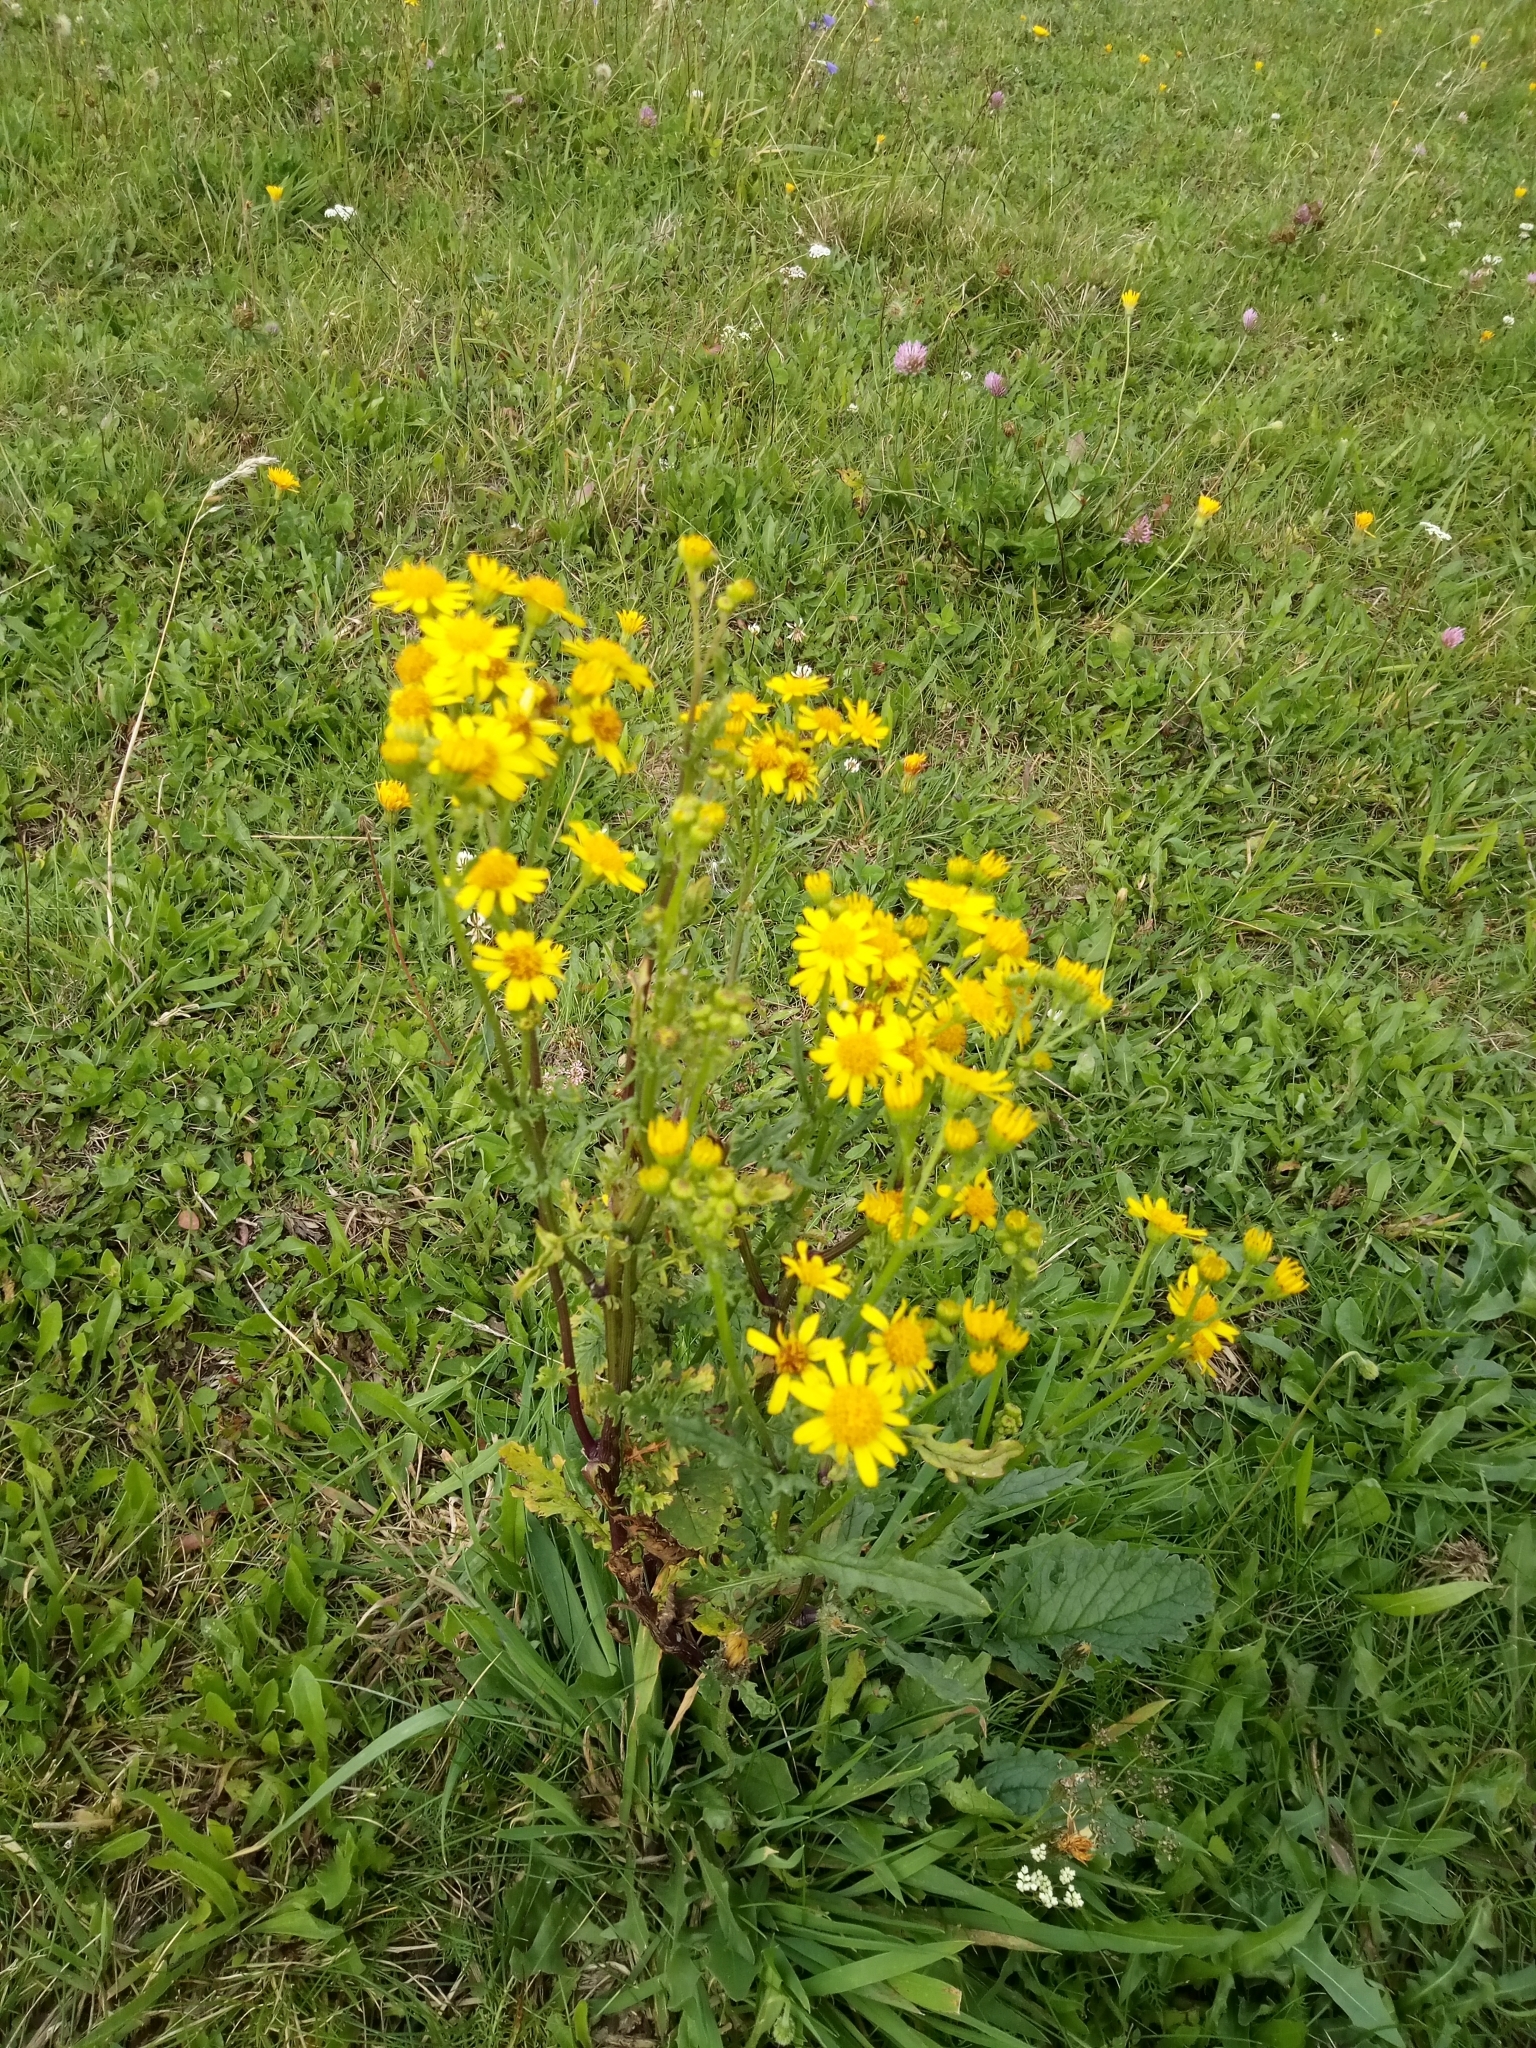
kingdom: Plantae
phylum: Tracheophyta
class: Magnoliopsida
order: Asterales
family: Asteraceae
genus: Jacobaea
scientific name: Jacobaea vulgaris
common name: Stinking willie
